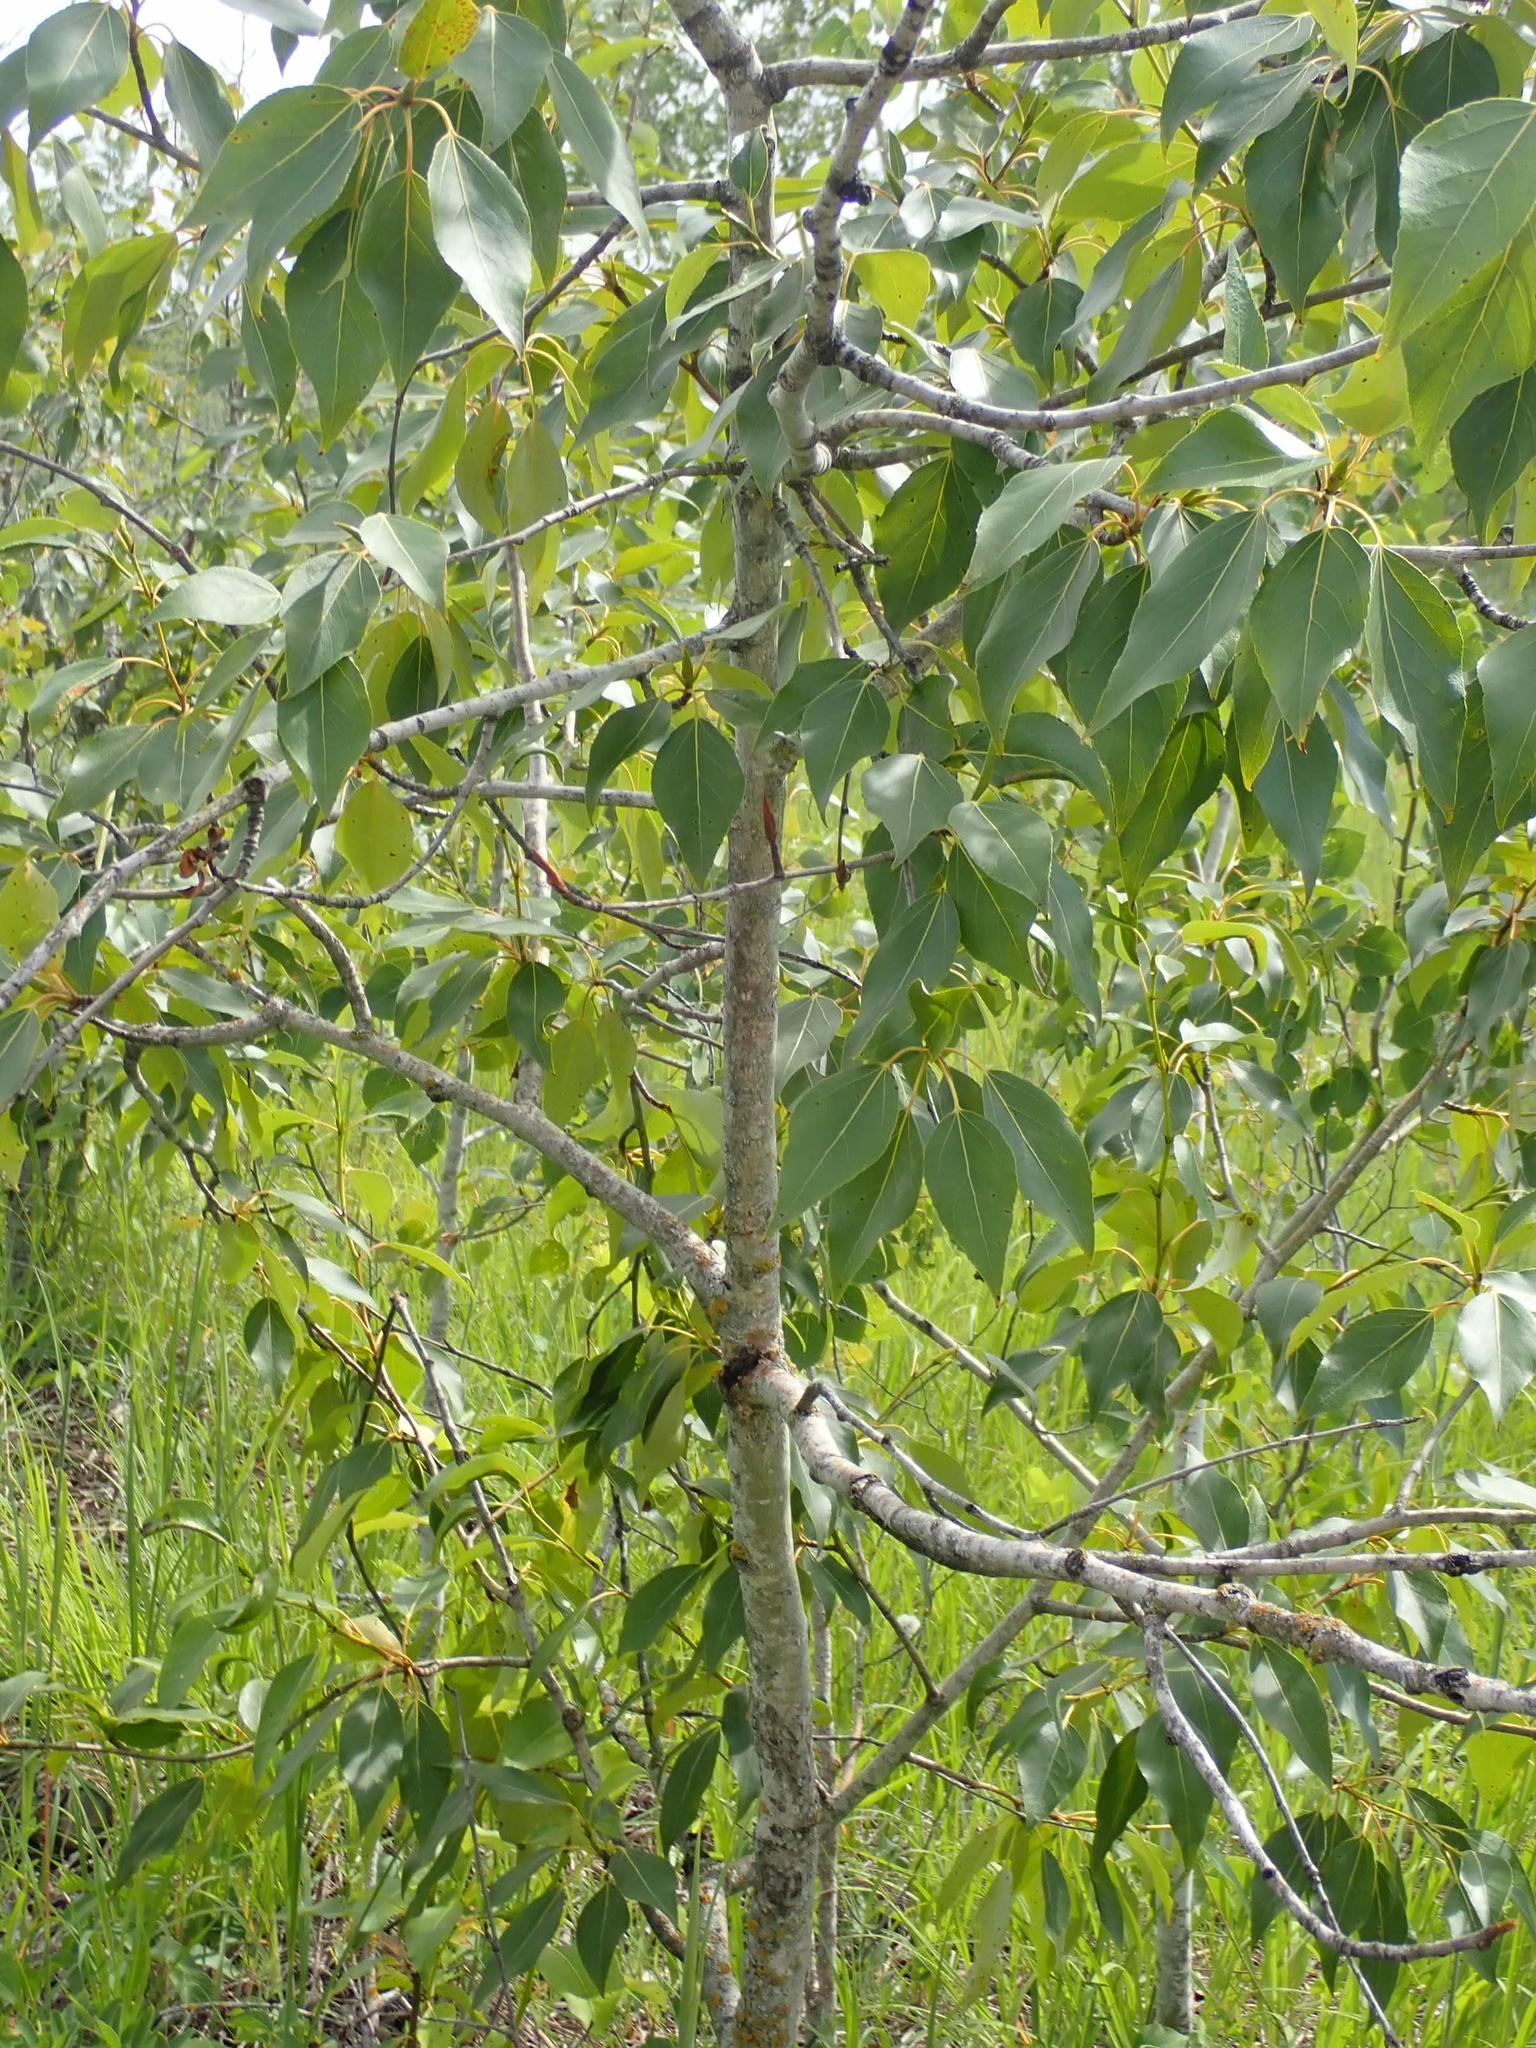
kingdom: Plantae
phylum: Tracheophyta
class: Magnoliopsida
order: Malpighiales
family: Salicaceae
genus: Populus
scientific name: Populus balsamifera
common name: Balsam poplar
